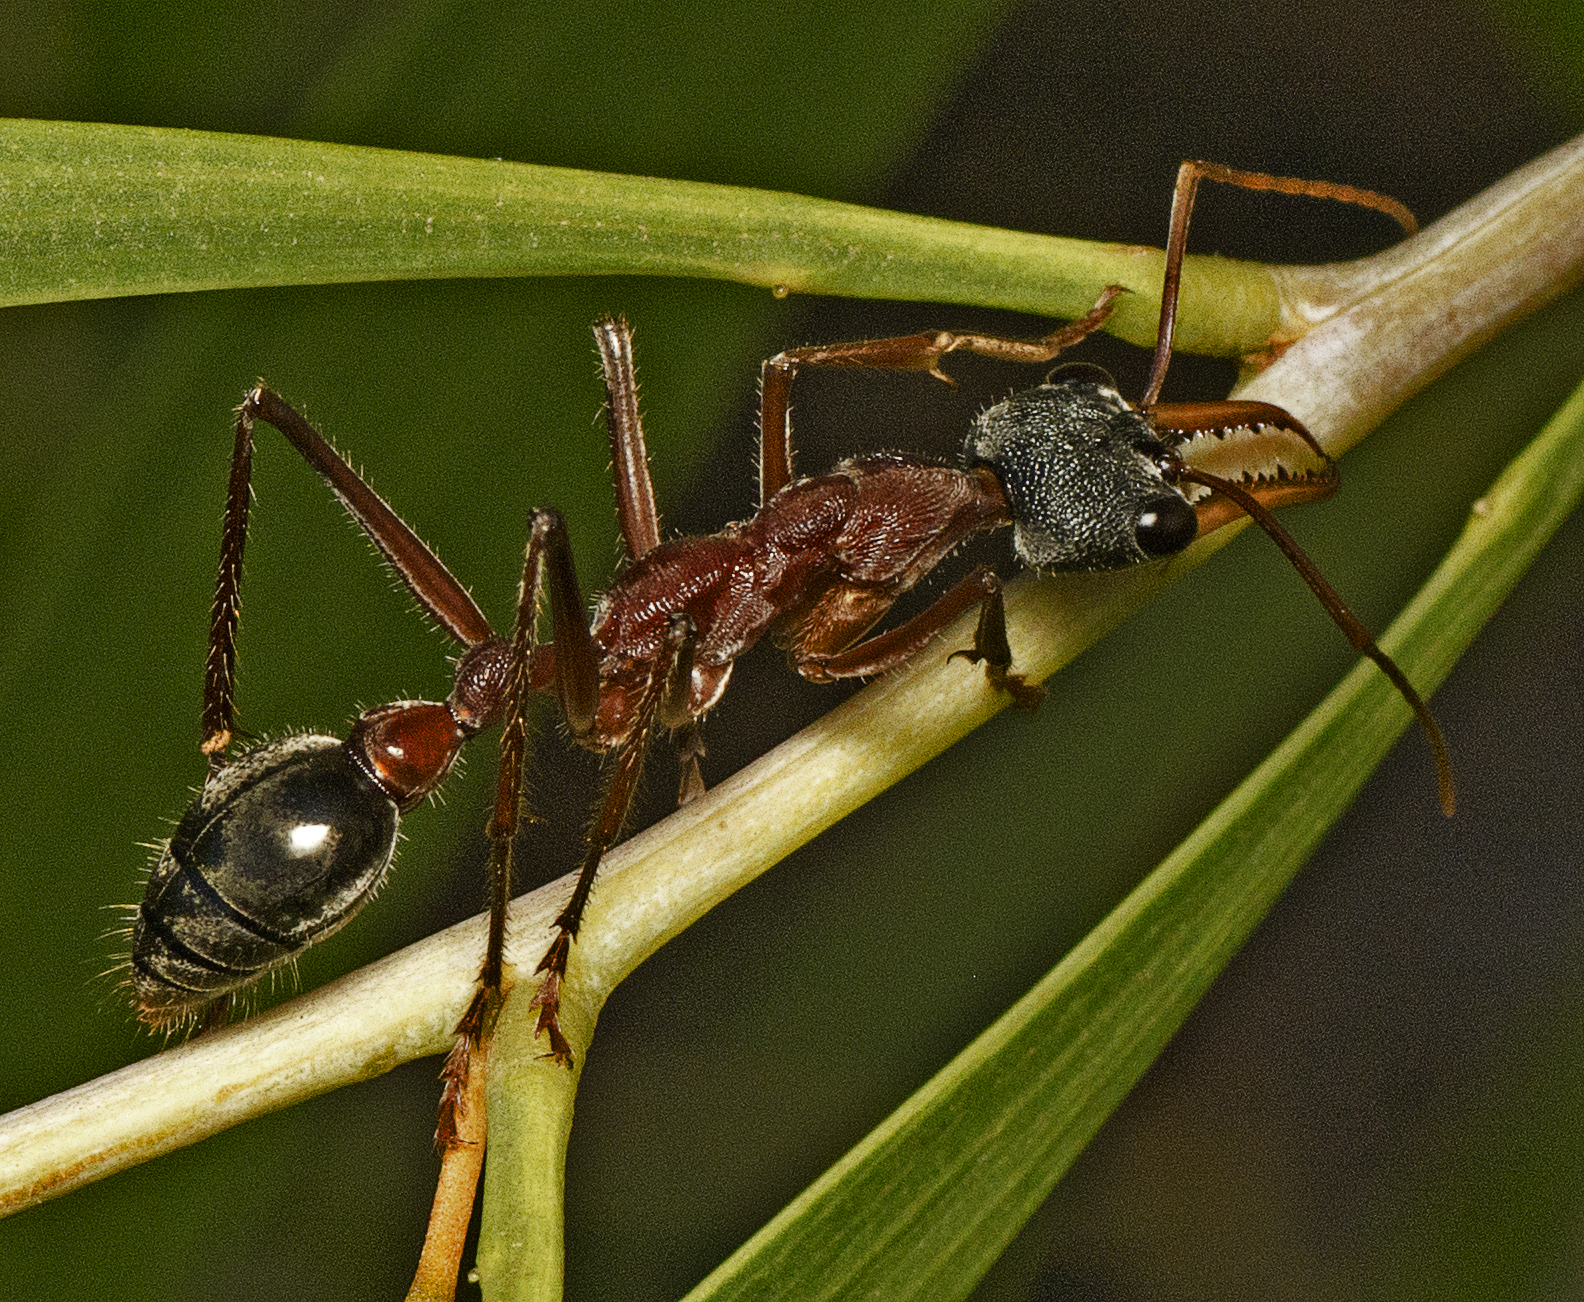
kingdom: Animalia
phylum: Arthropoda
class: Insecta
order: Hymenoptera
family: Formicidae
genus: Myrmecia
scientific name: Myrmecia nigriceps
